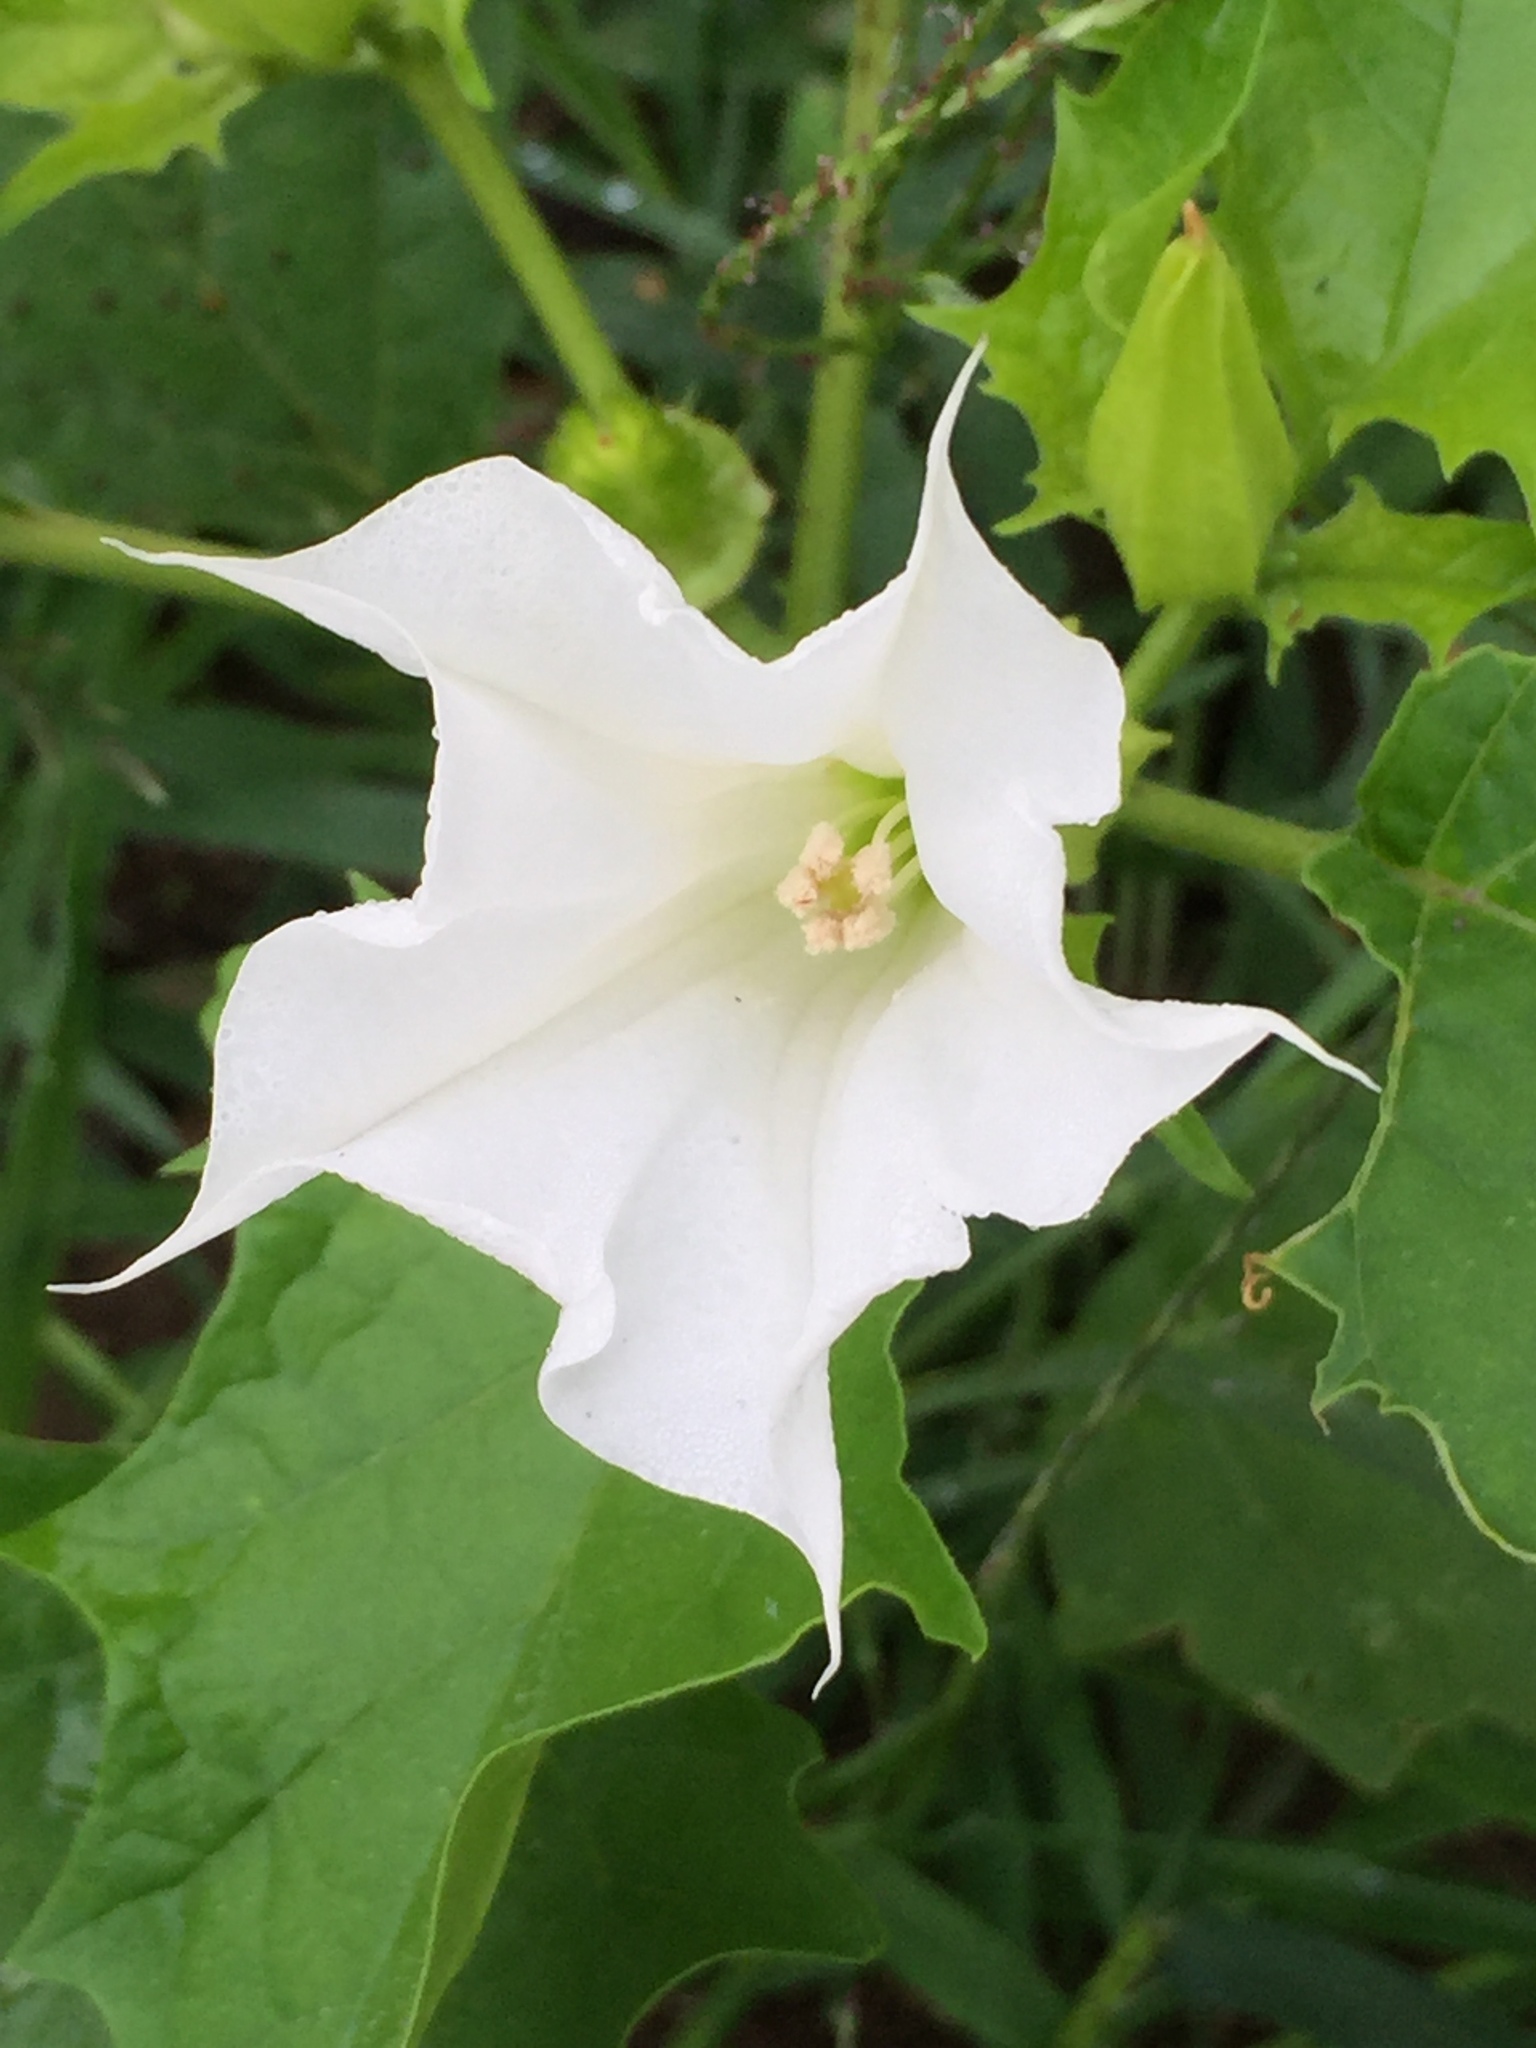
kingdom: Plantae
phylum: Tracheophyta
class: Magnoliopsida
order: Solanales
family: Solanaceae
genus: Datura
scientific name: Datura stramonium
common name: Thorn-apple
